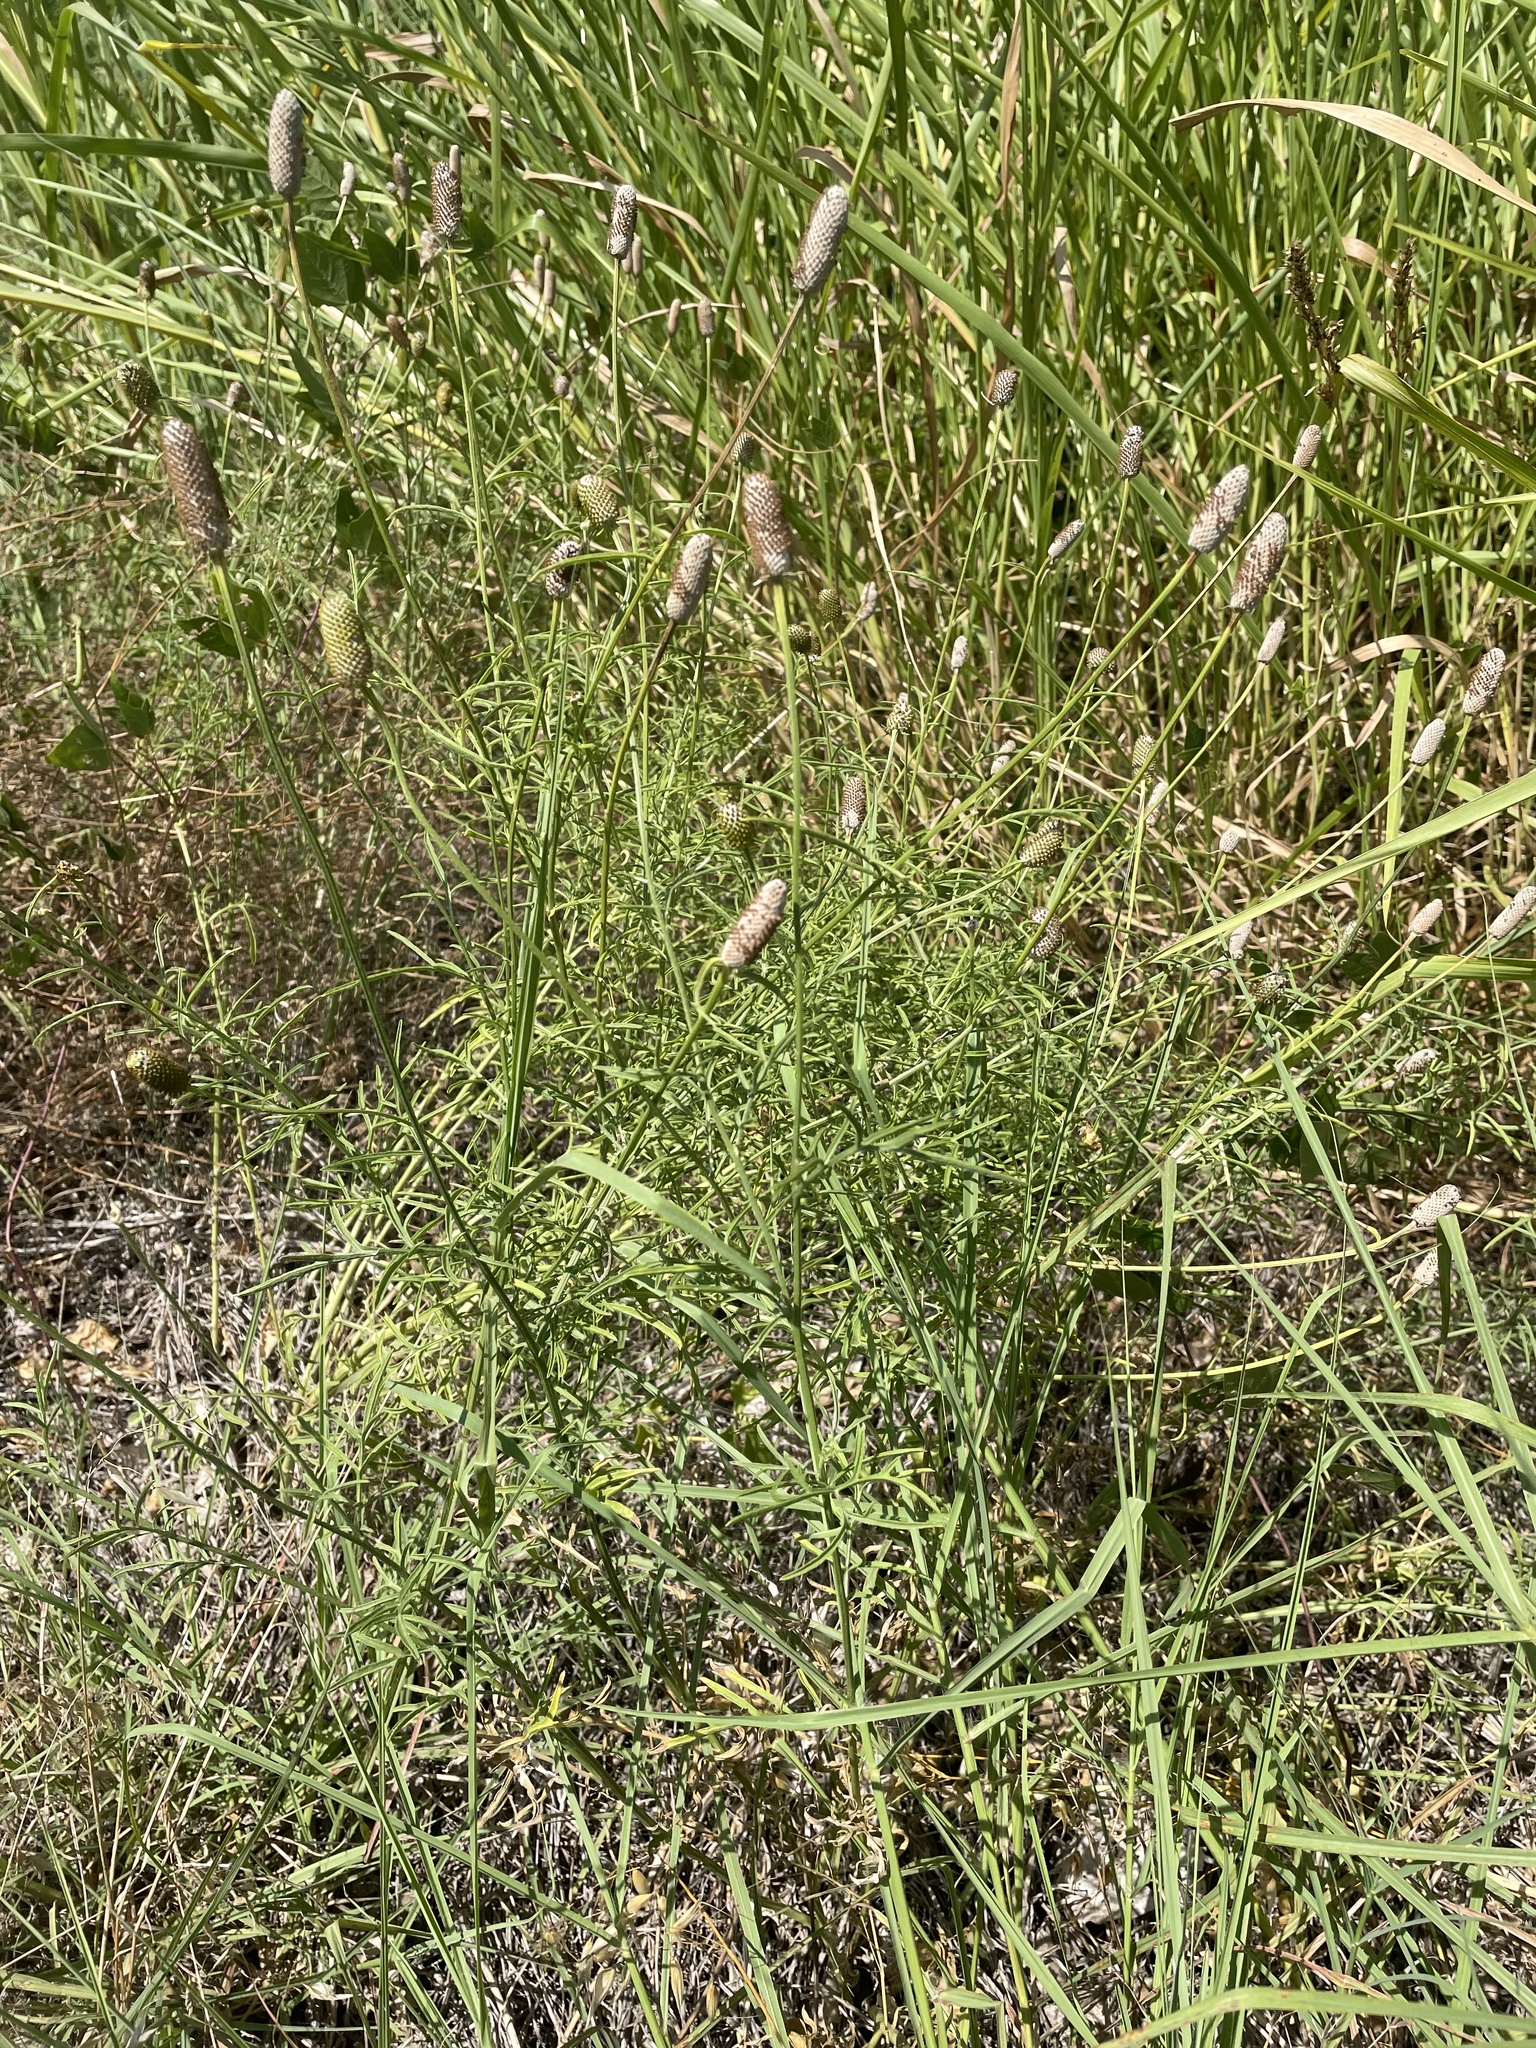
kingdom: Plantae
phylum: Tracheophyta
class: Magnoliopsida
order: Asterales
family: Asteraceae
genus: Ratibida
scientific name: Ratibida columnifera
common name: Prairie coneflower
